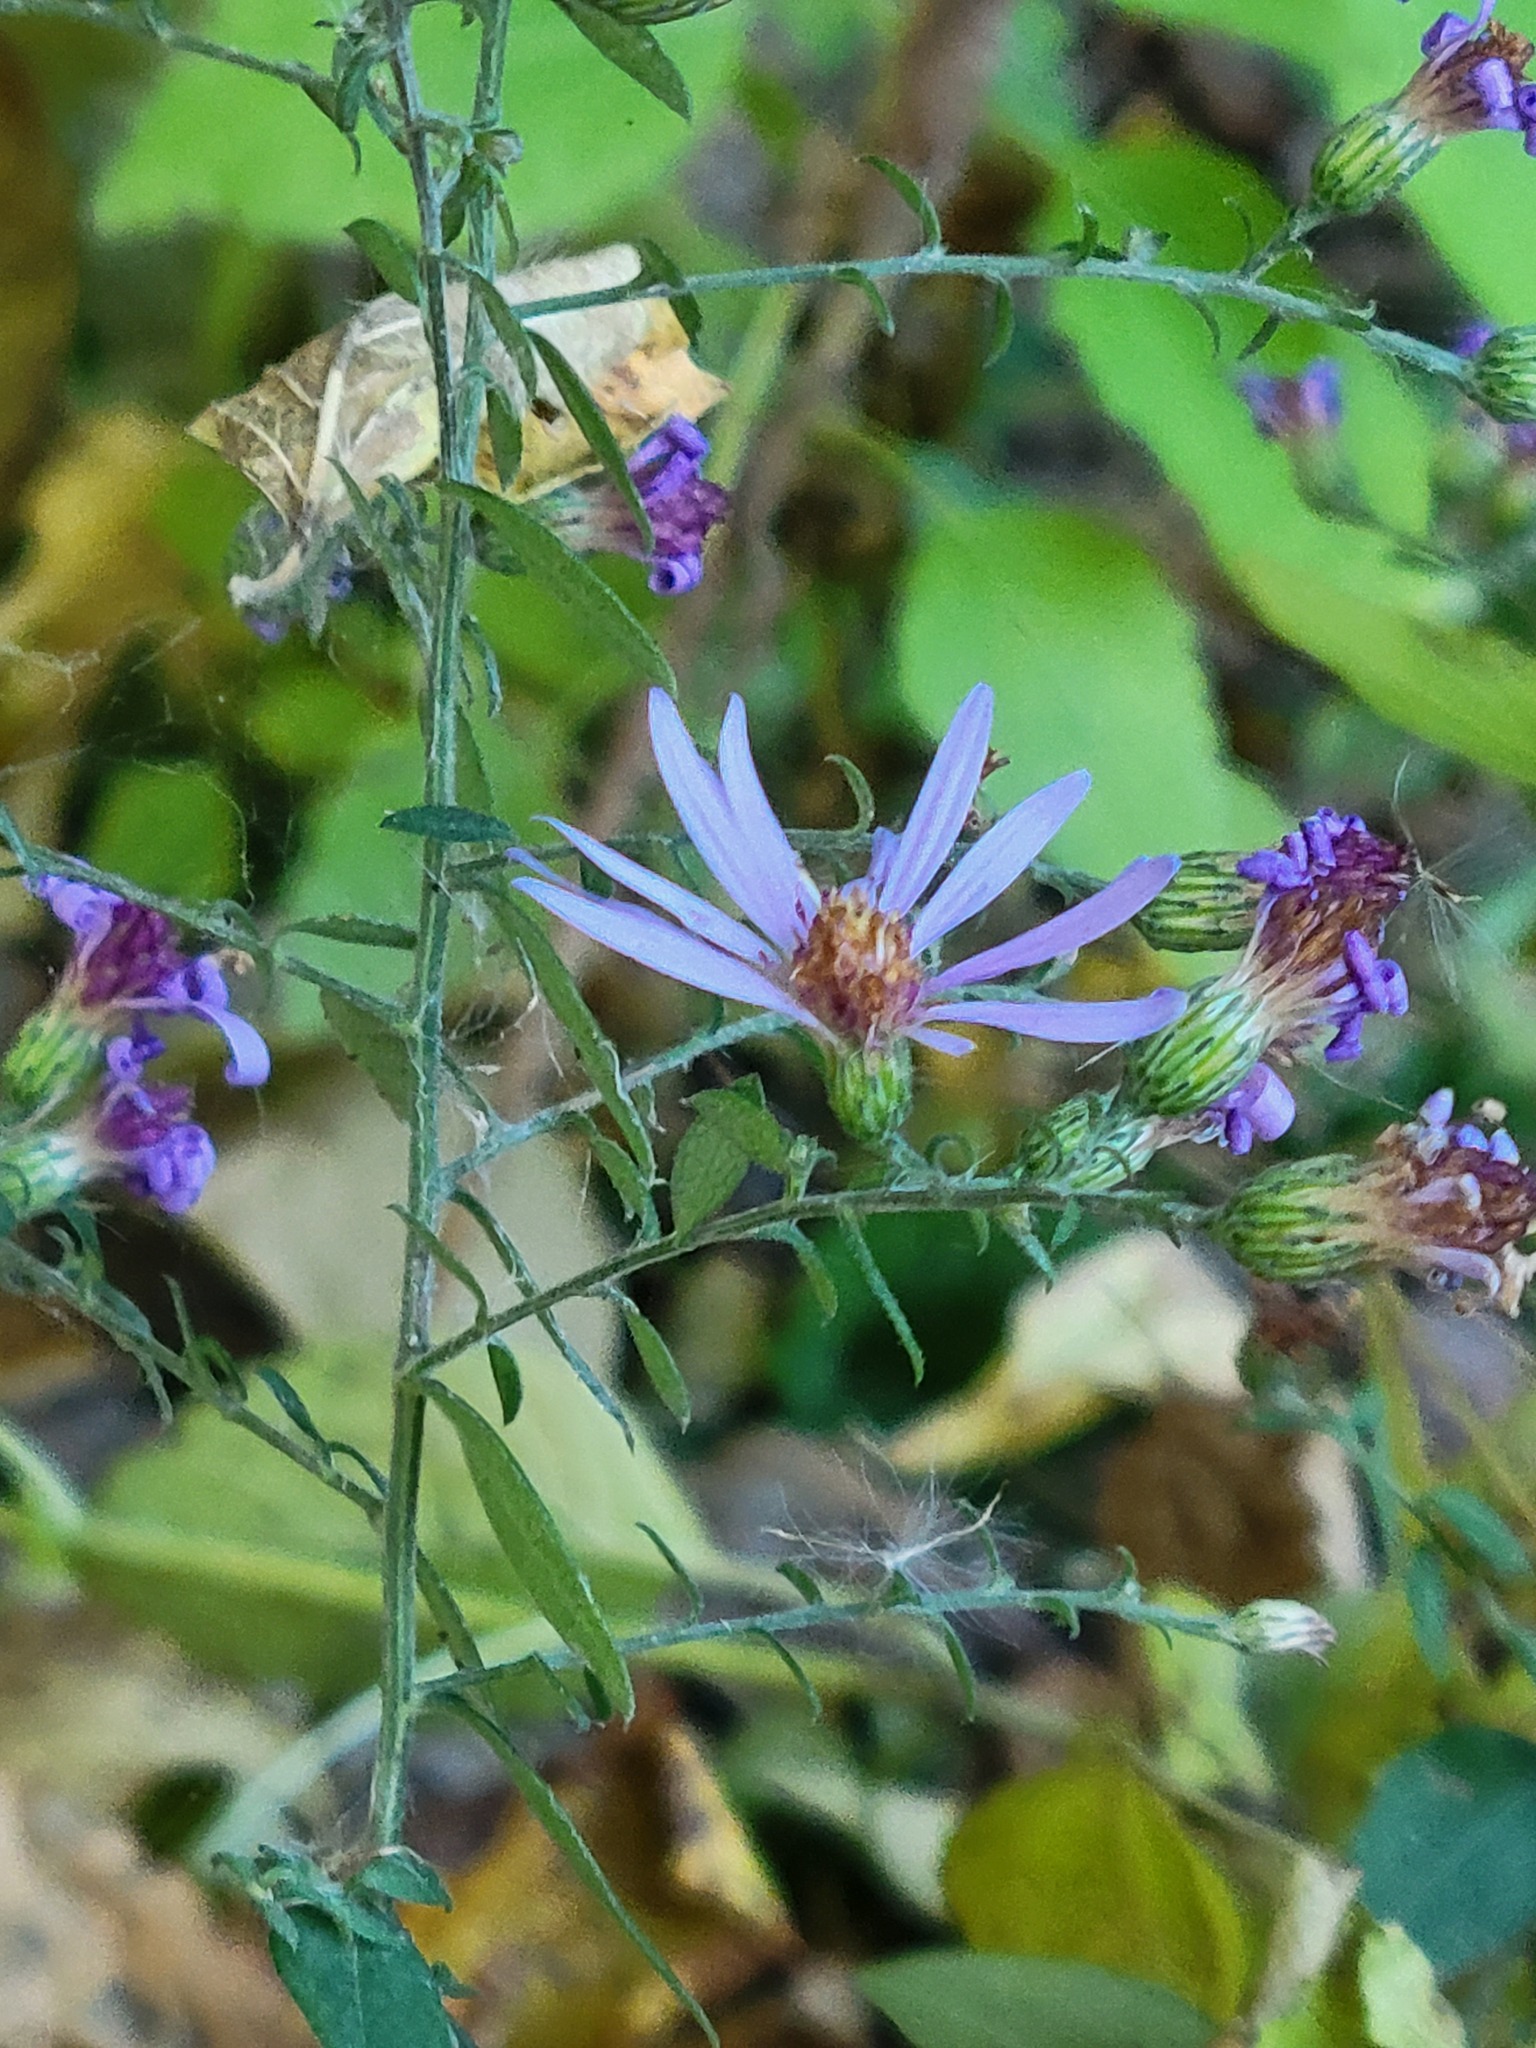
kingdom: Plantae
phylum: Tracheophyta
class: Magnoliopsida
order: Asterales
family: Asteraceae
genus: Symphyotrichum
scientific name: Symphyotrichum drummondii
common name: Drummond's aster
